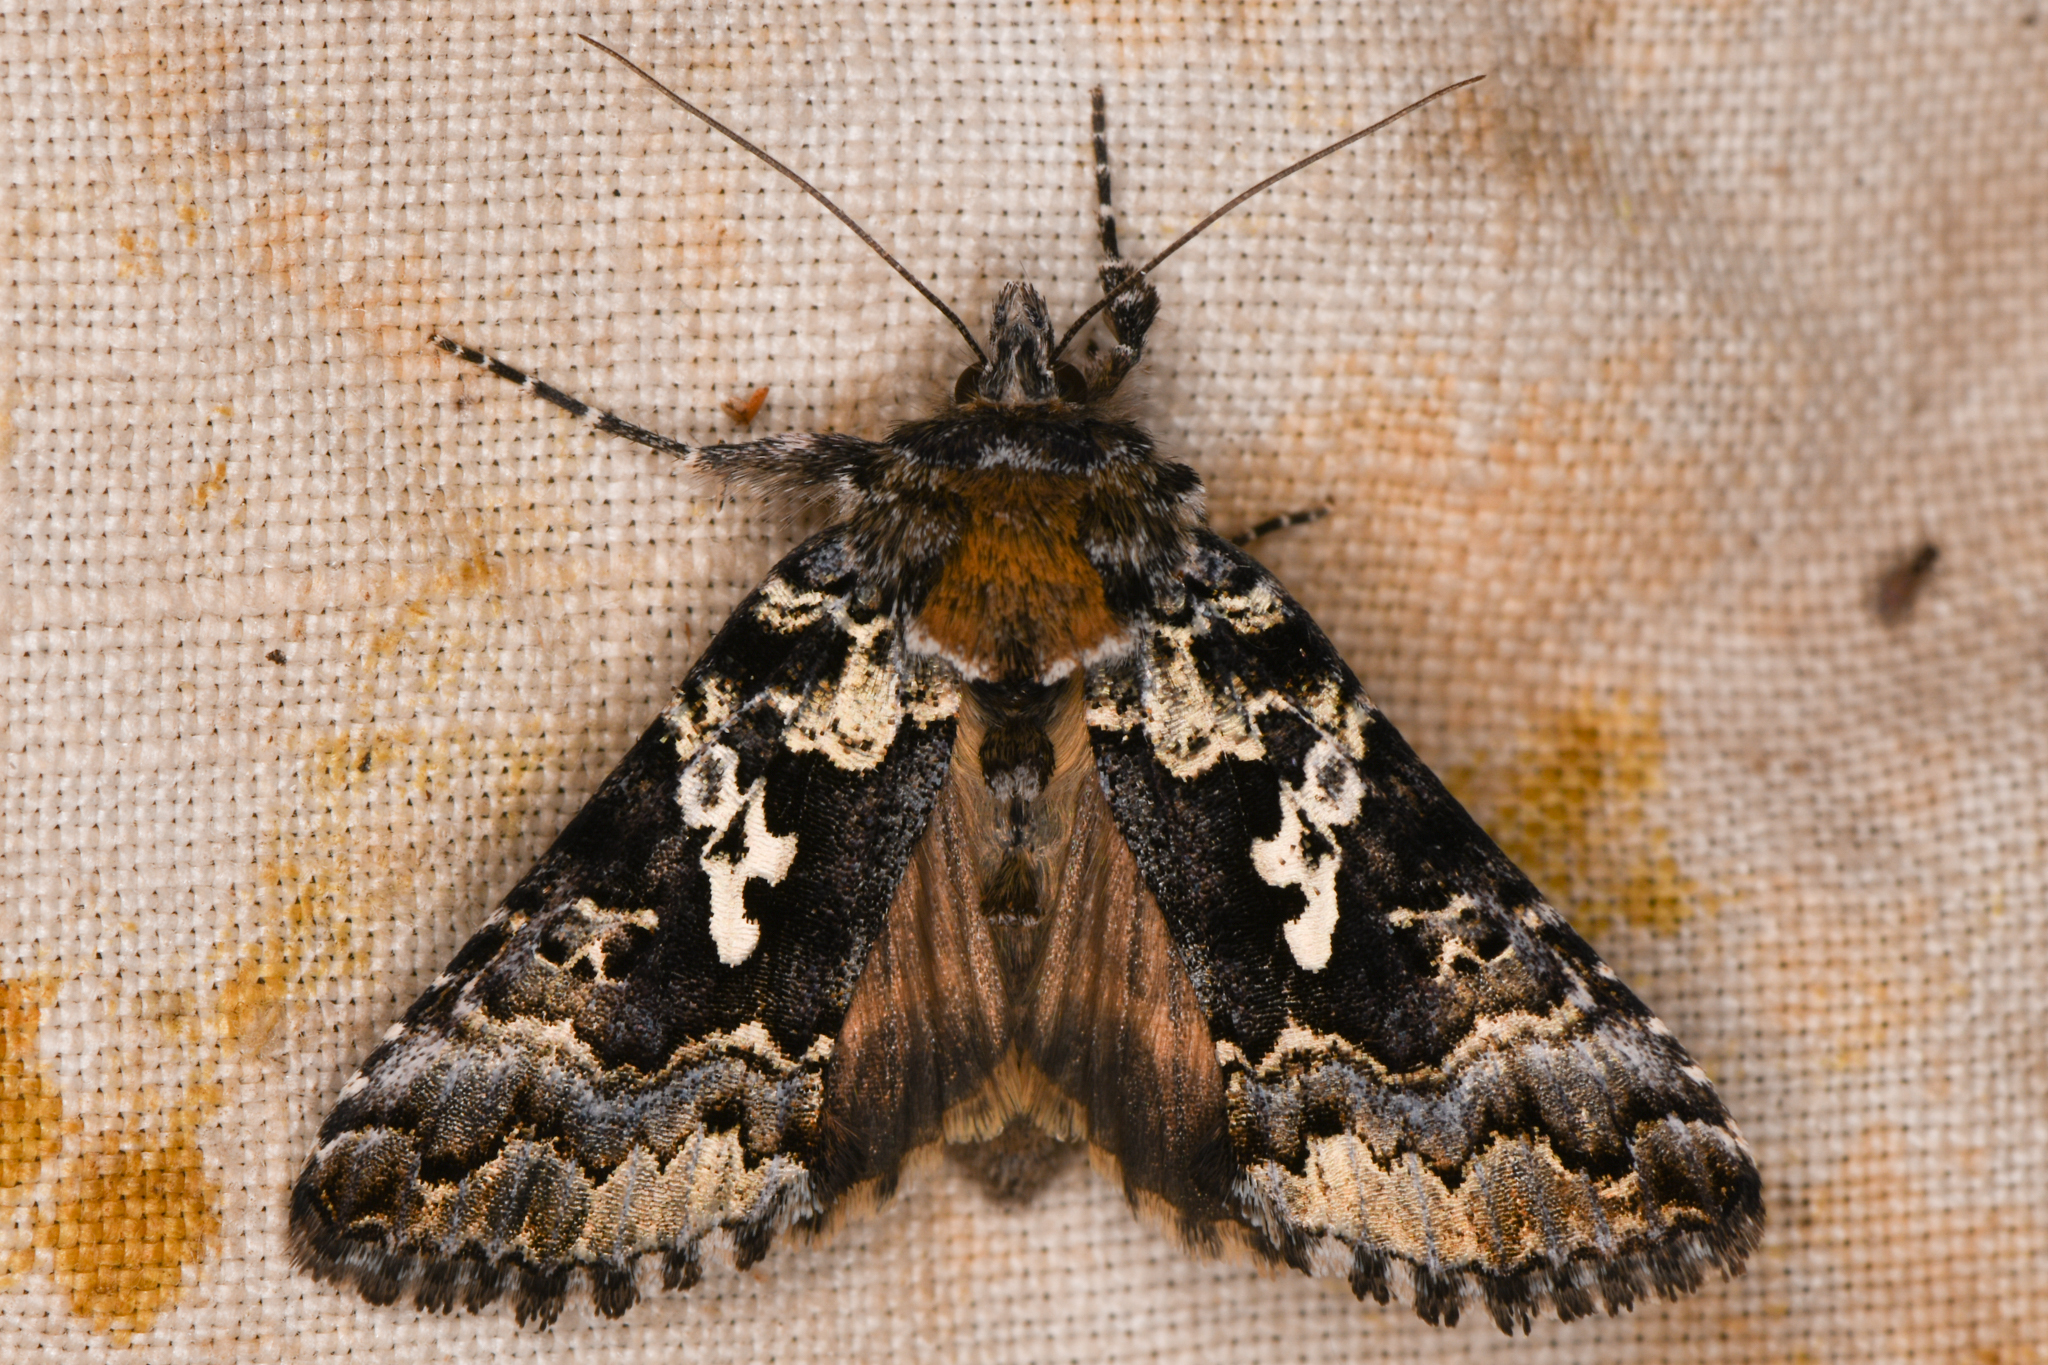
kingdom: Animalia
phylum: Arthropoda
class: Insecta
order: Lepidoptera
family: Noctuidae
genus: Syngrapha
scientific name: Syngrapha rectangula
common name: Angulated cutworm
